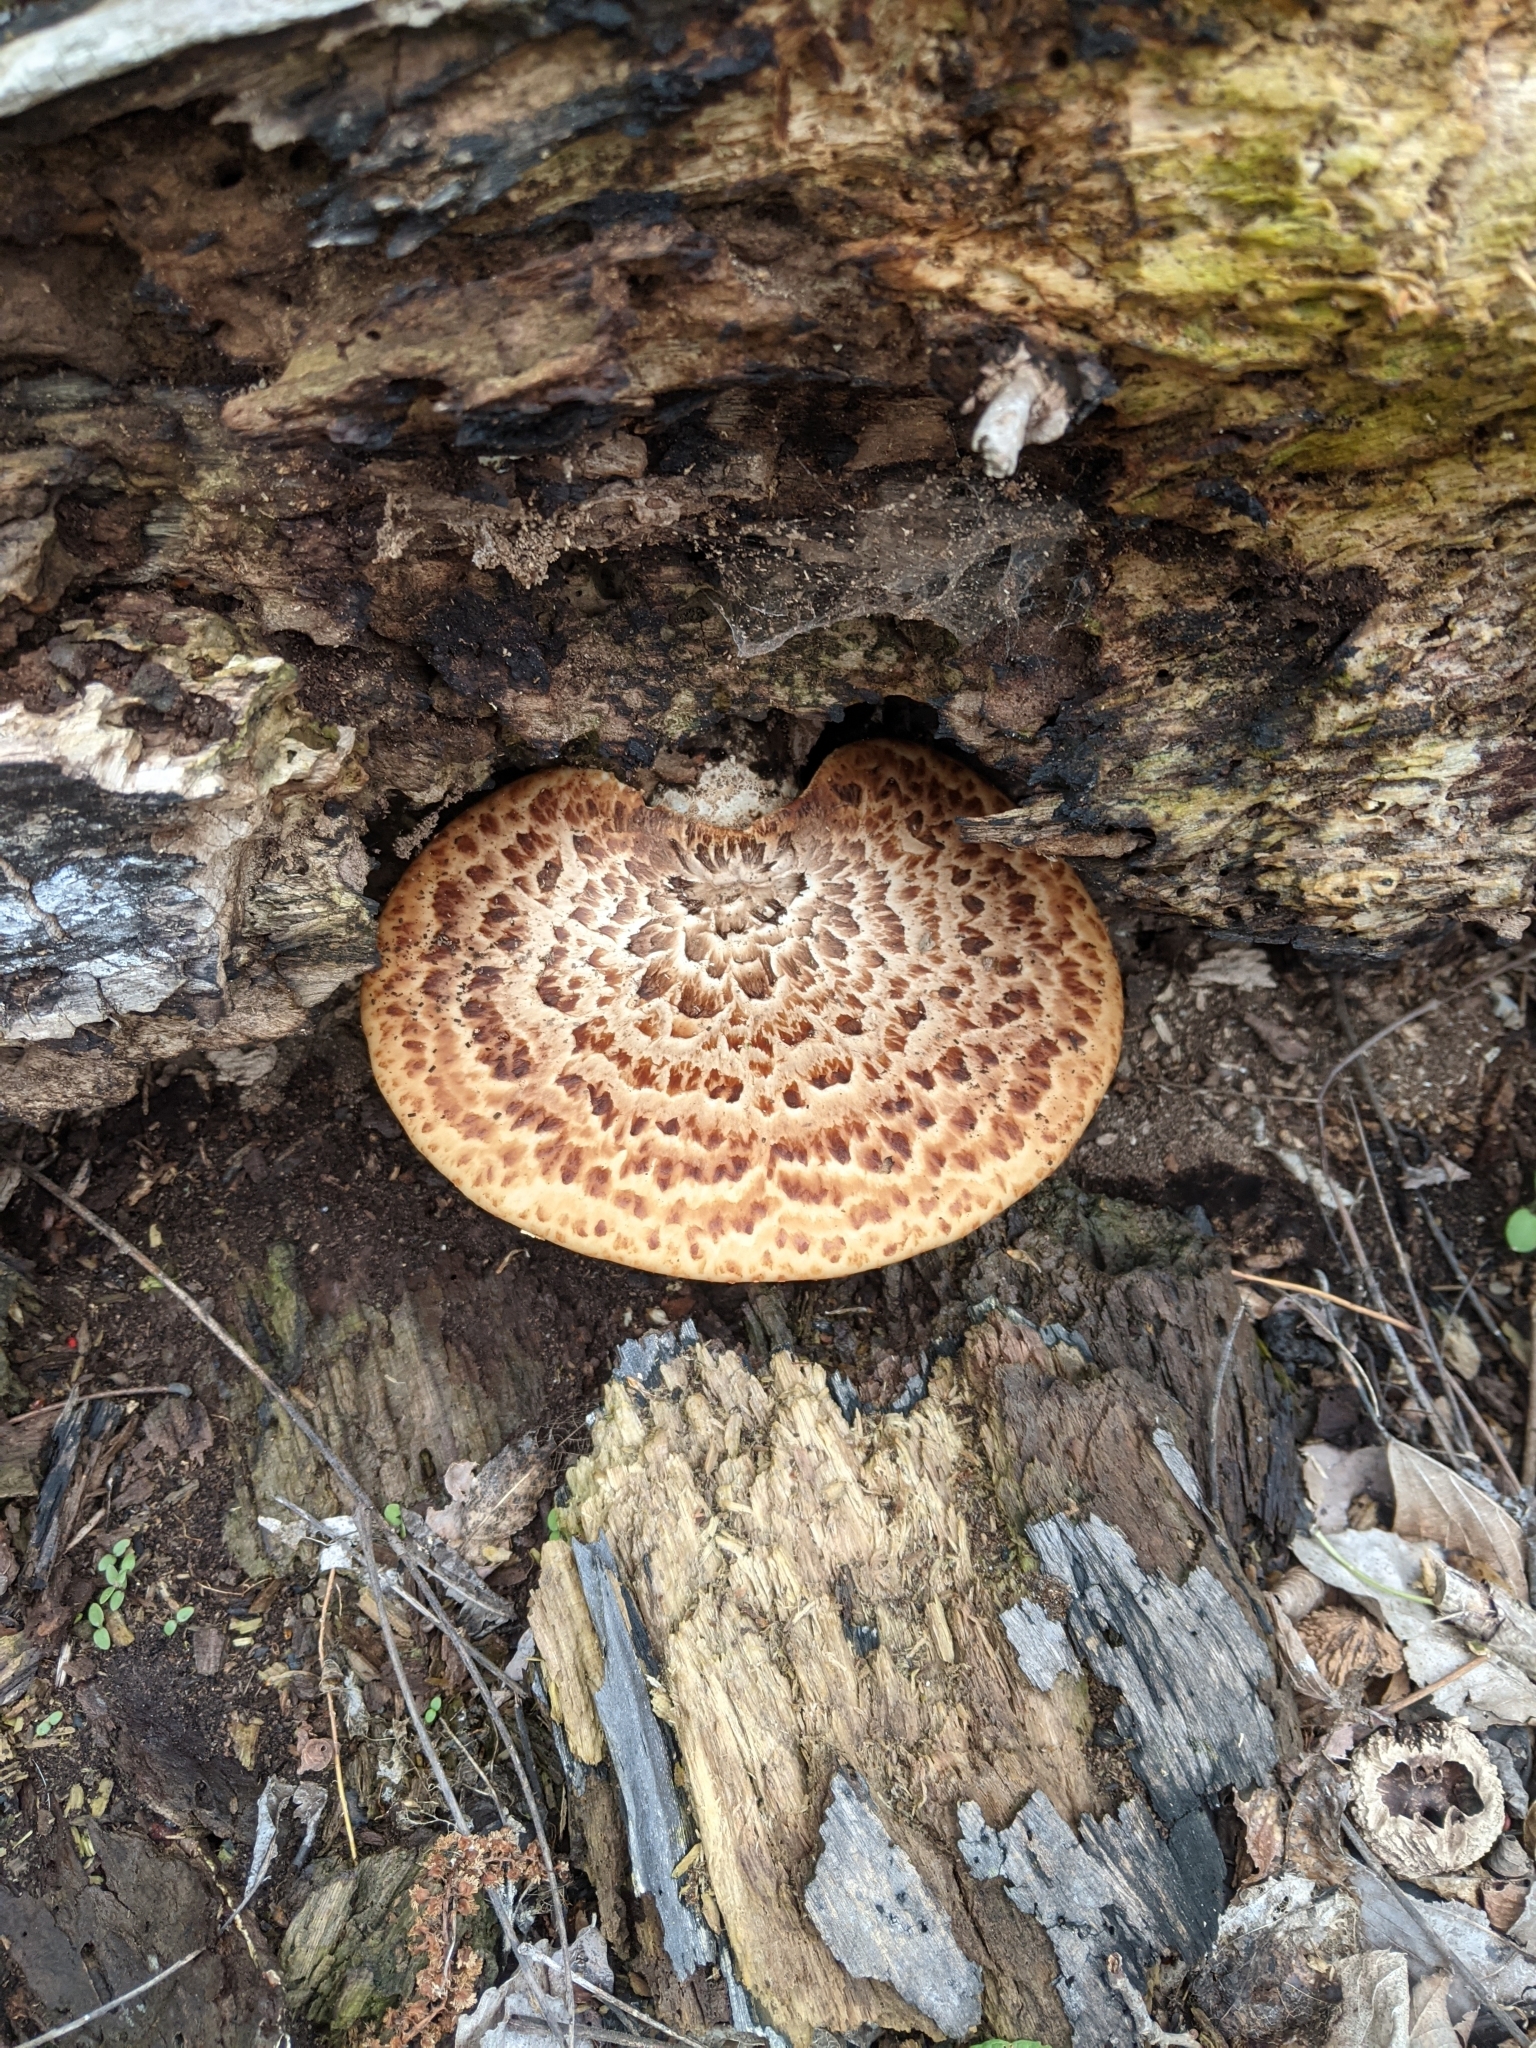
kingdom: Fungi
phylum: Basidiomycota
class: Agaricomycetes
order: Polyporales
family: Polyporaceae
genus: Cerioporus
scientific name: Cerioporus squamosus
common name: Dryad's saddle
